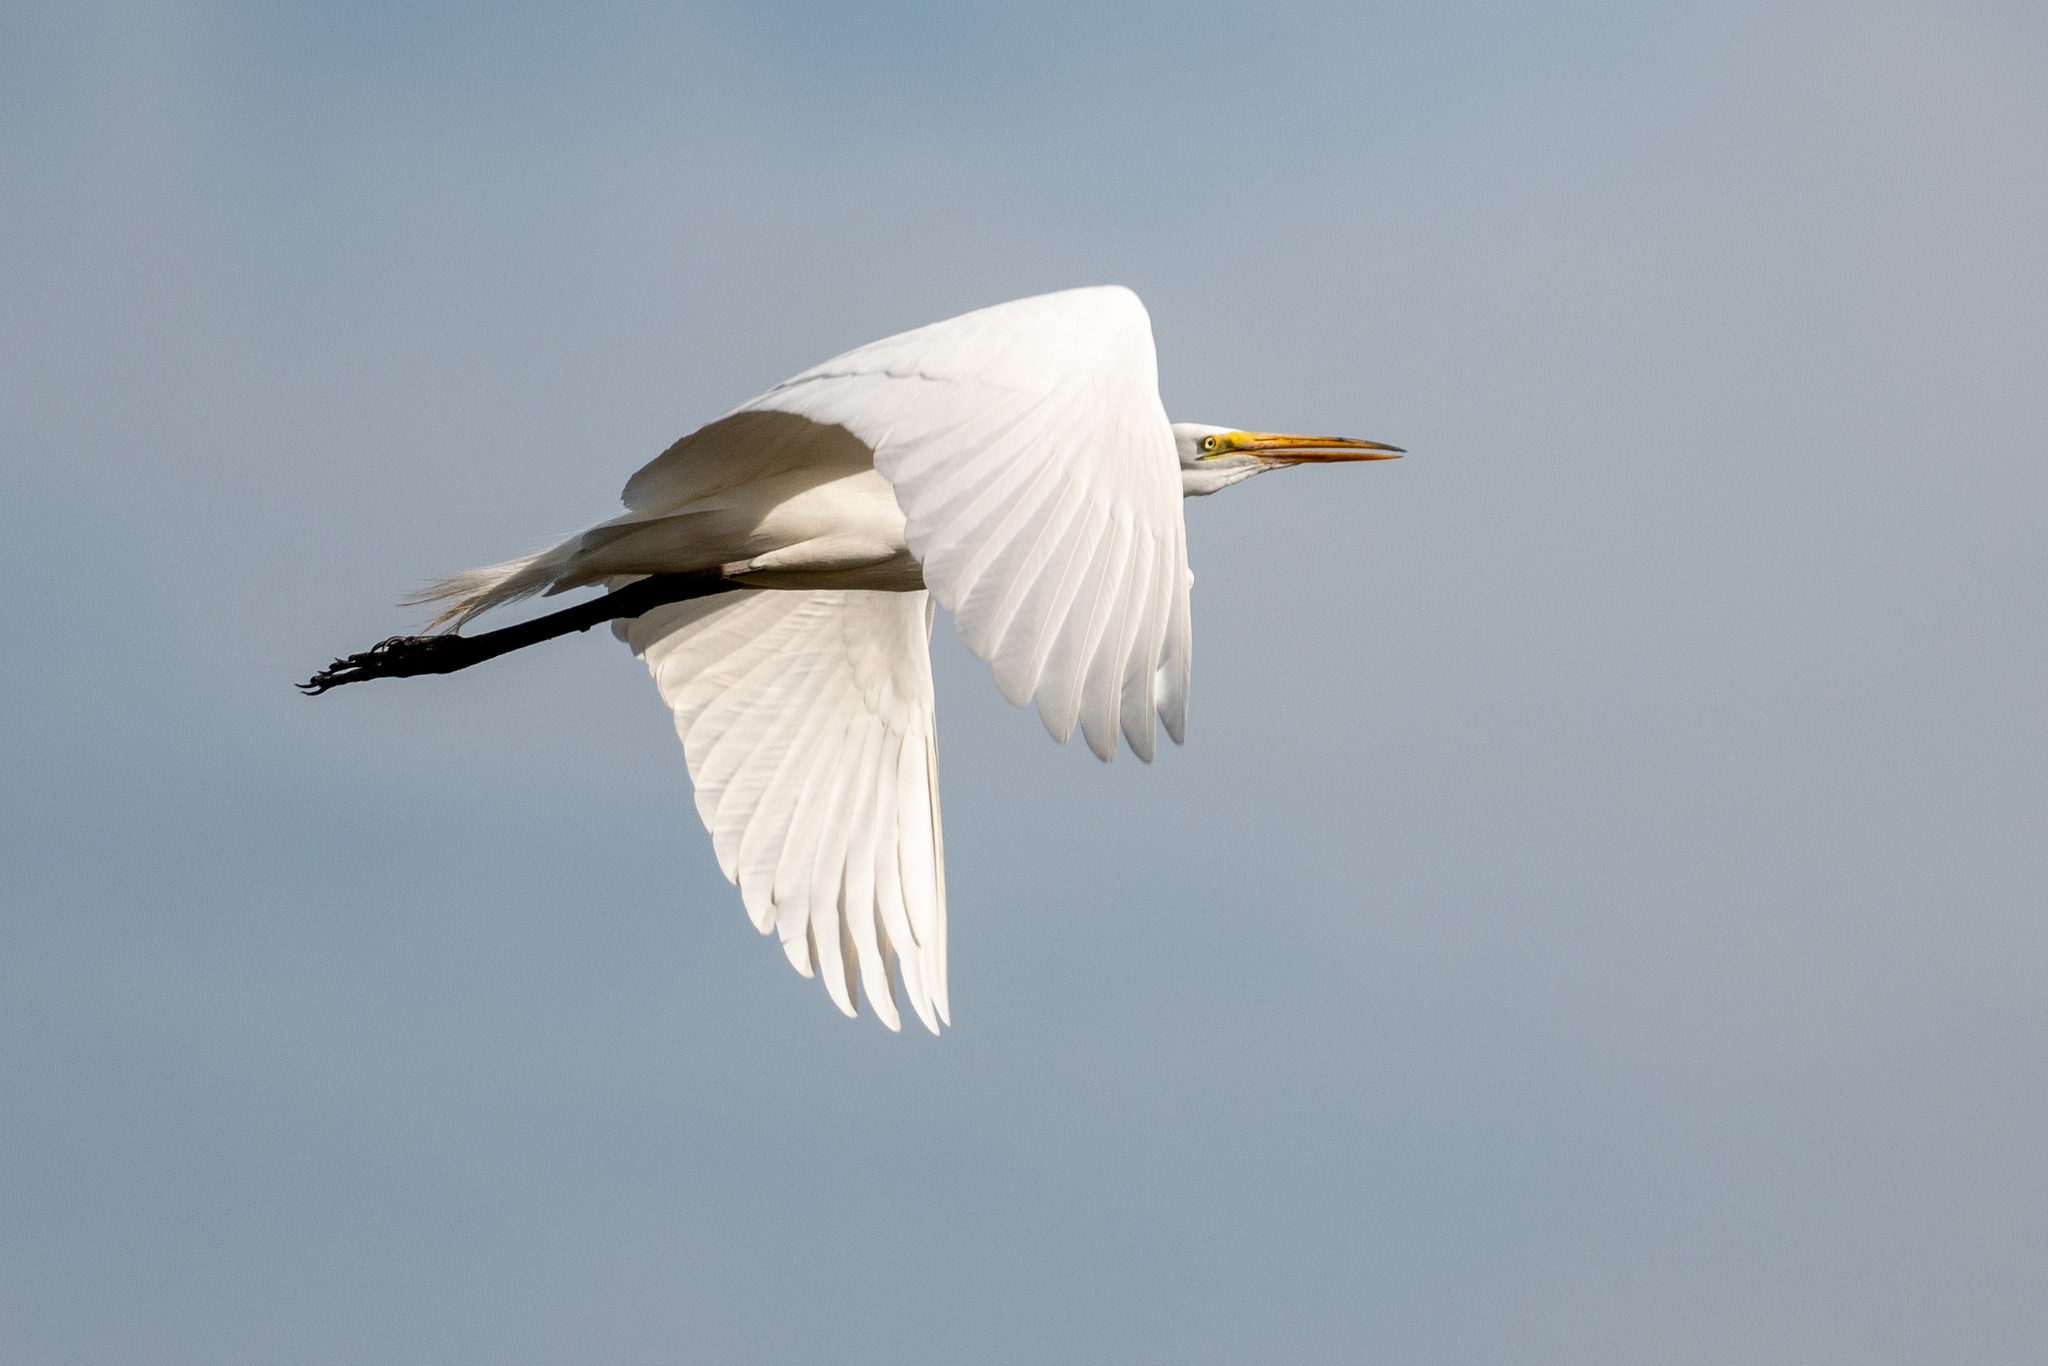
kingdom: Animalia
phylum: Chordata
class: Aves
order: Pelecaniformes
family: Ardeidae
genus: Ardea
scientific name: Ardea alba
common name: Great egret
